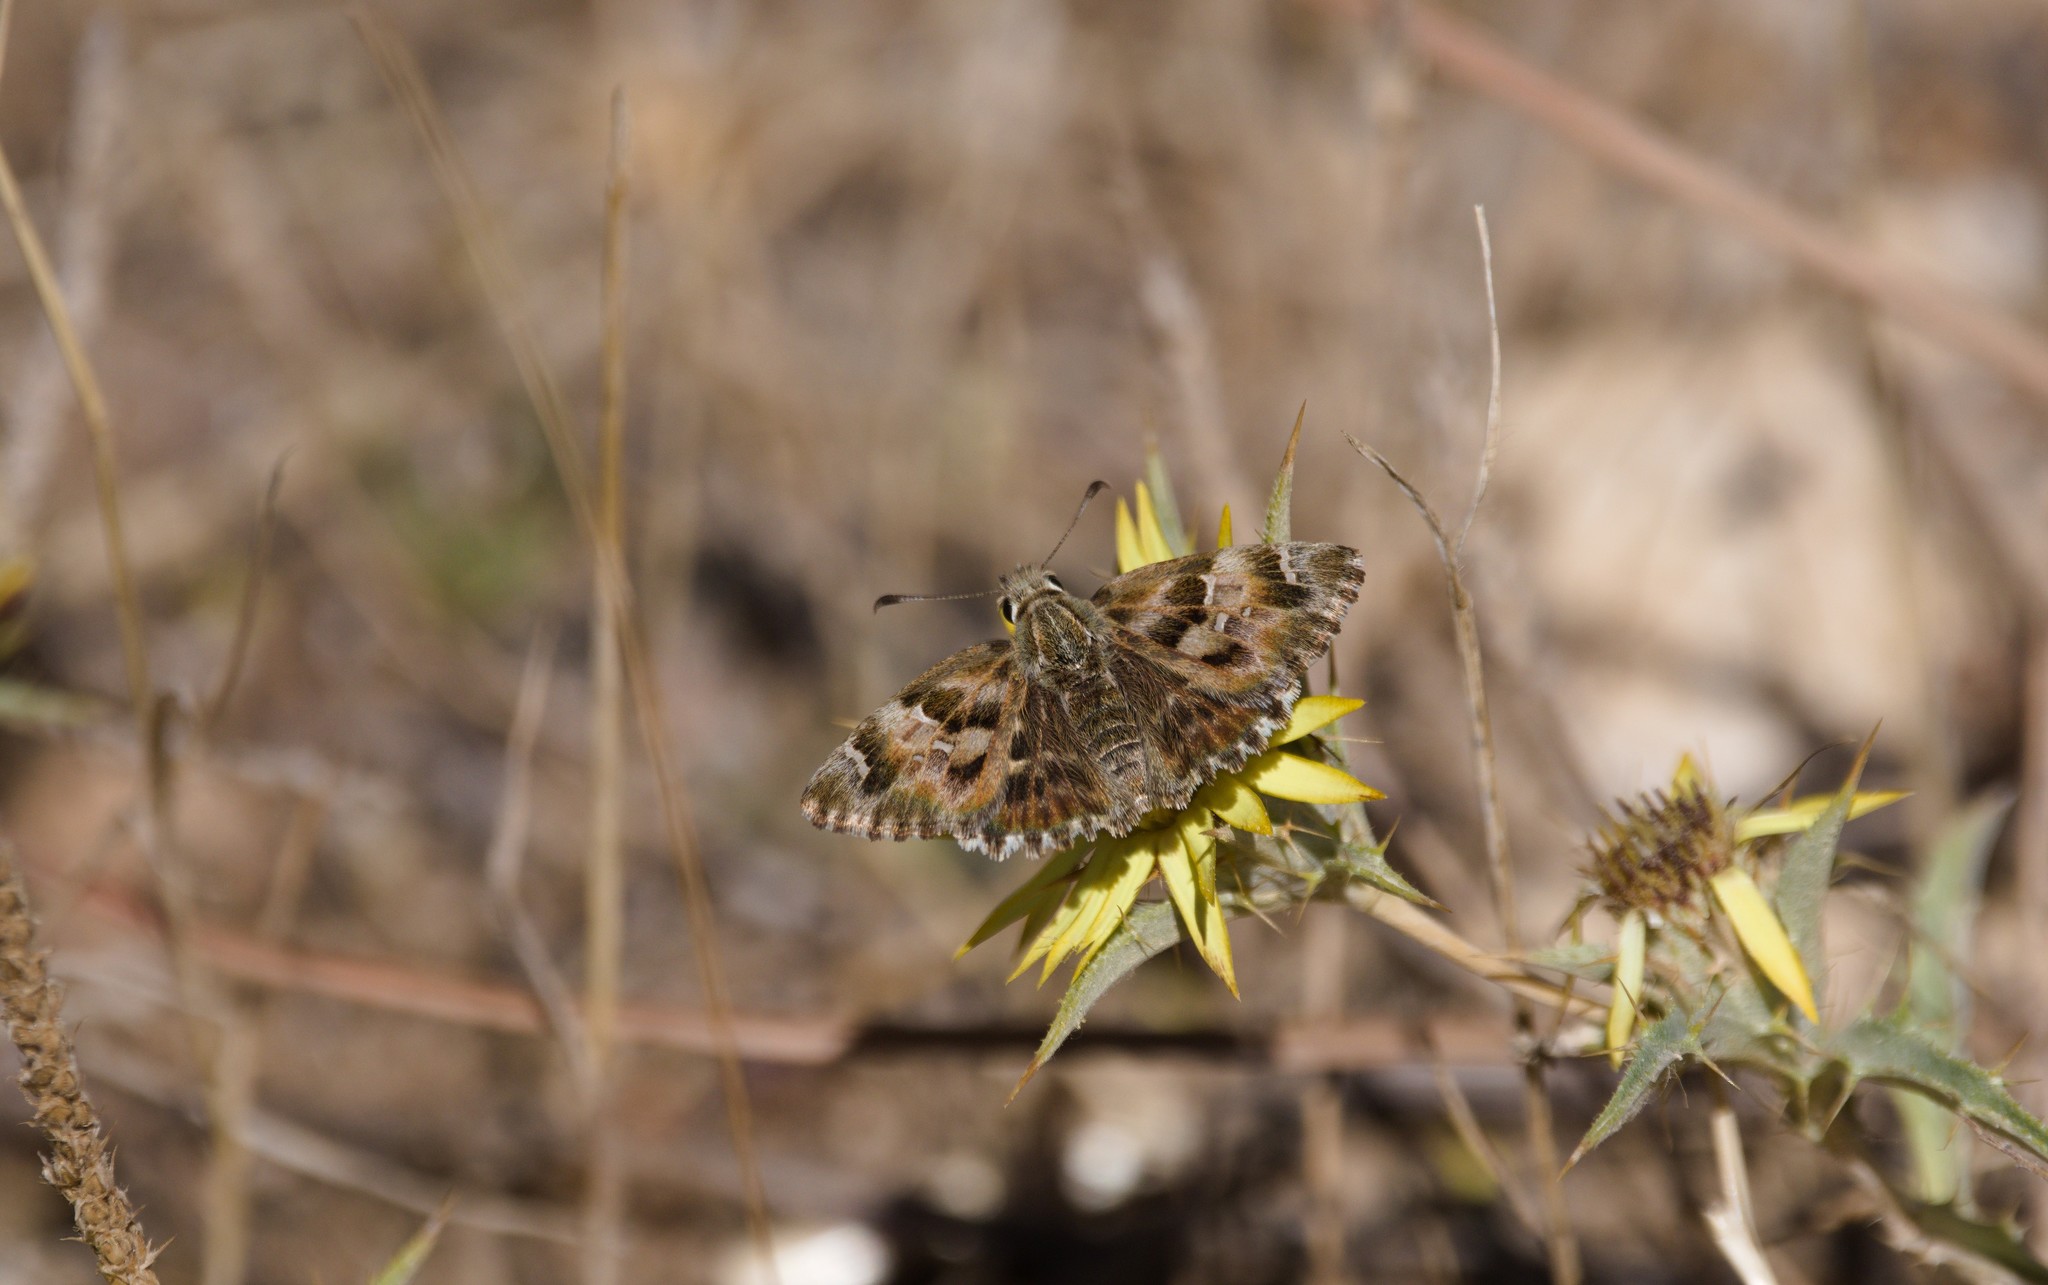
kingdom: Animalia
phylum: Arthropoda
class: Insecta
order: Lepidoptera
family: Hesperiidae
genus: Carcharodus
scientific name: Carcharodus alceae
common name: Mallow skipper
